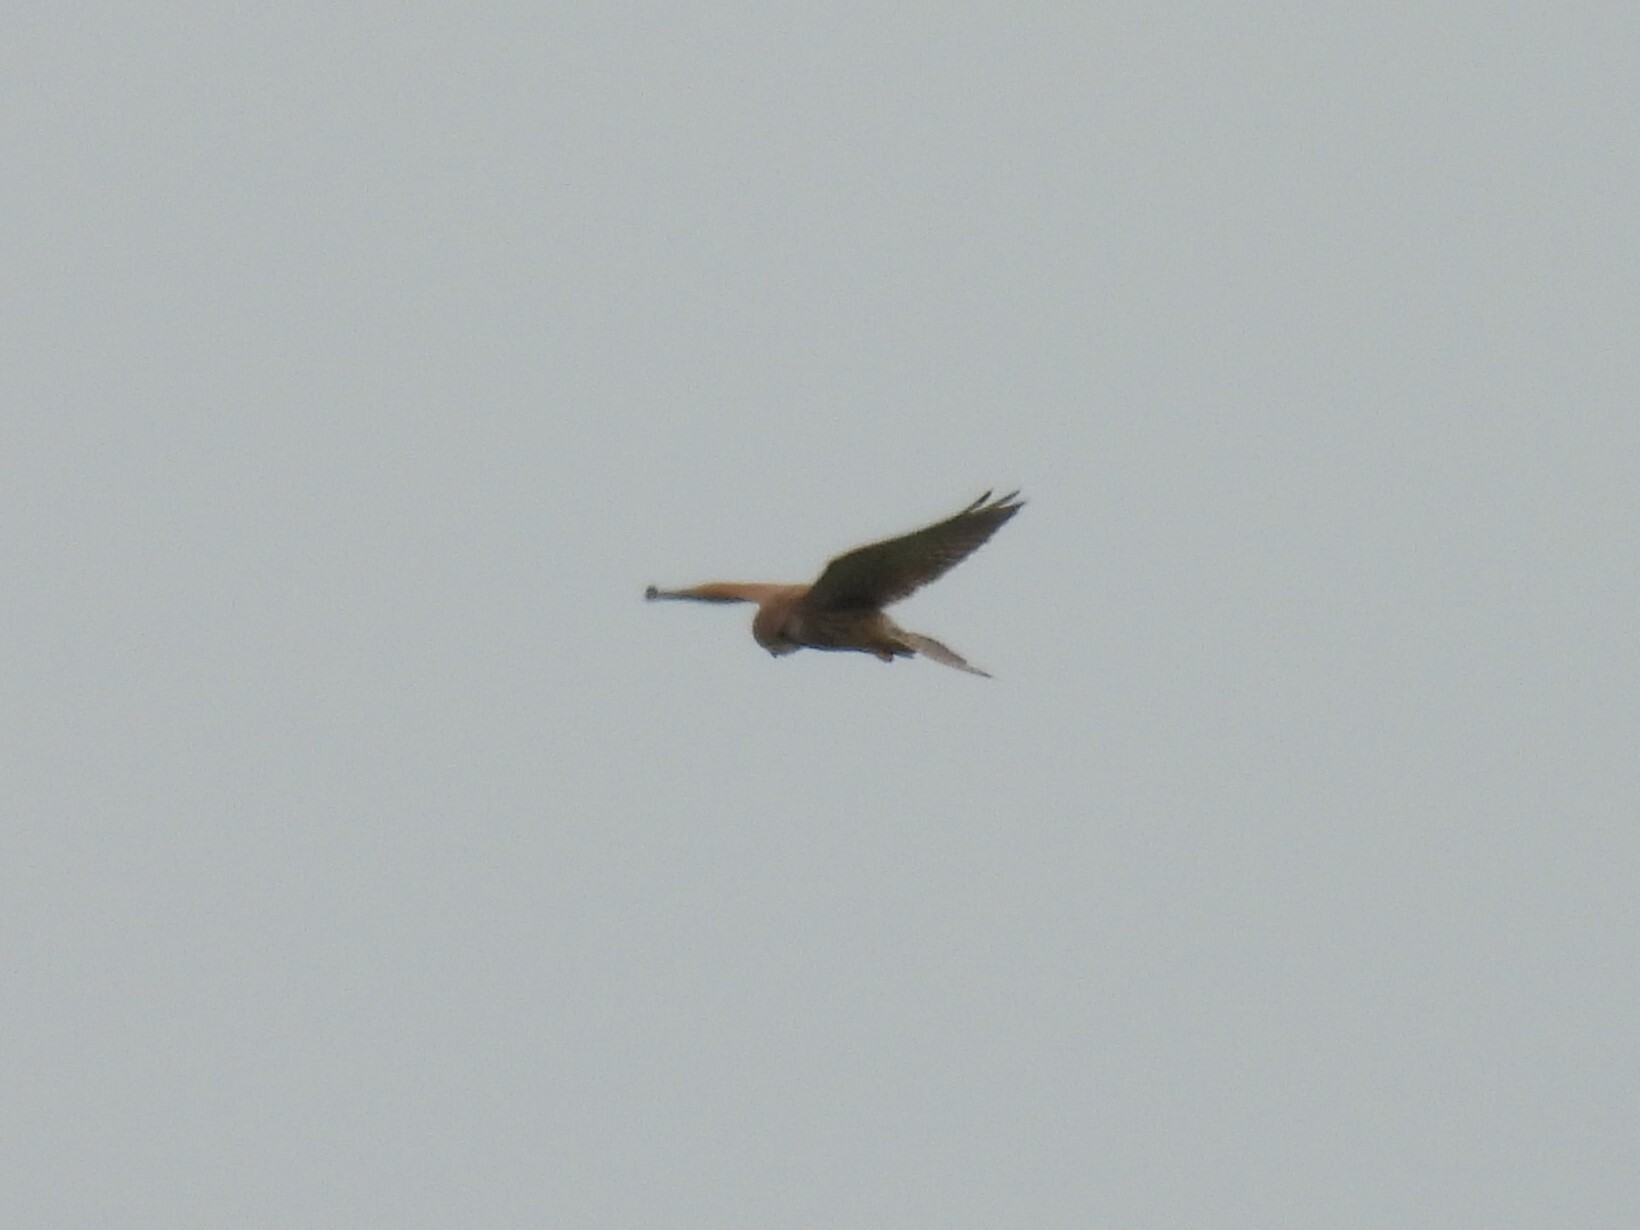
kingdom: Animalia
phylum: Chordata
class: Aves
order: Falconiformes
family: Falconidae
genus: Falco
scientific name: Falco tinnunculus
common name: Common kestrel
